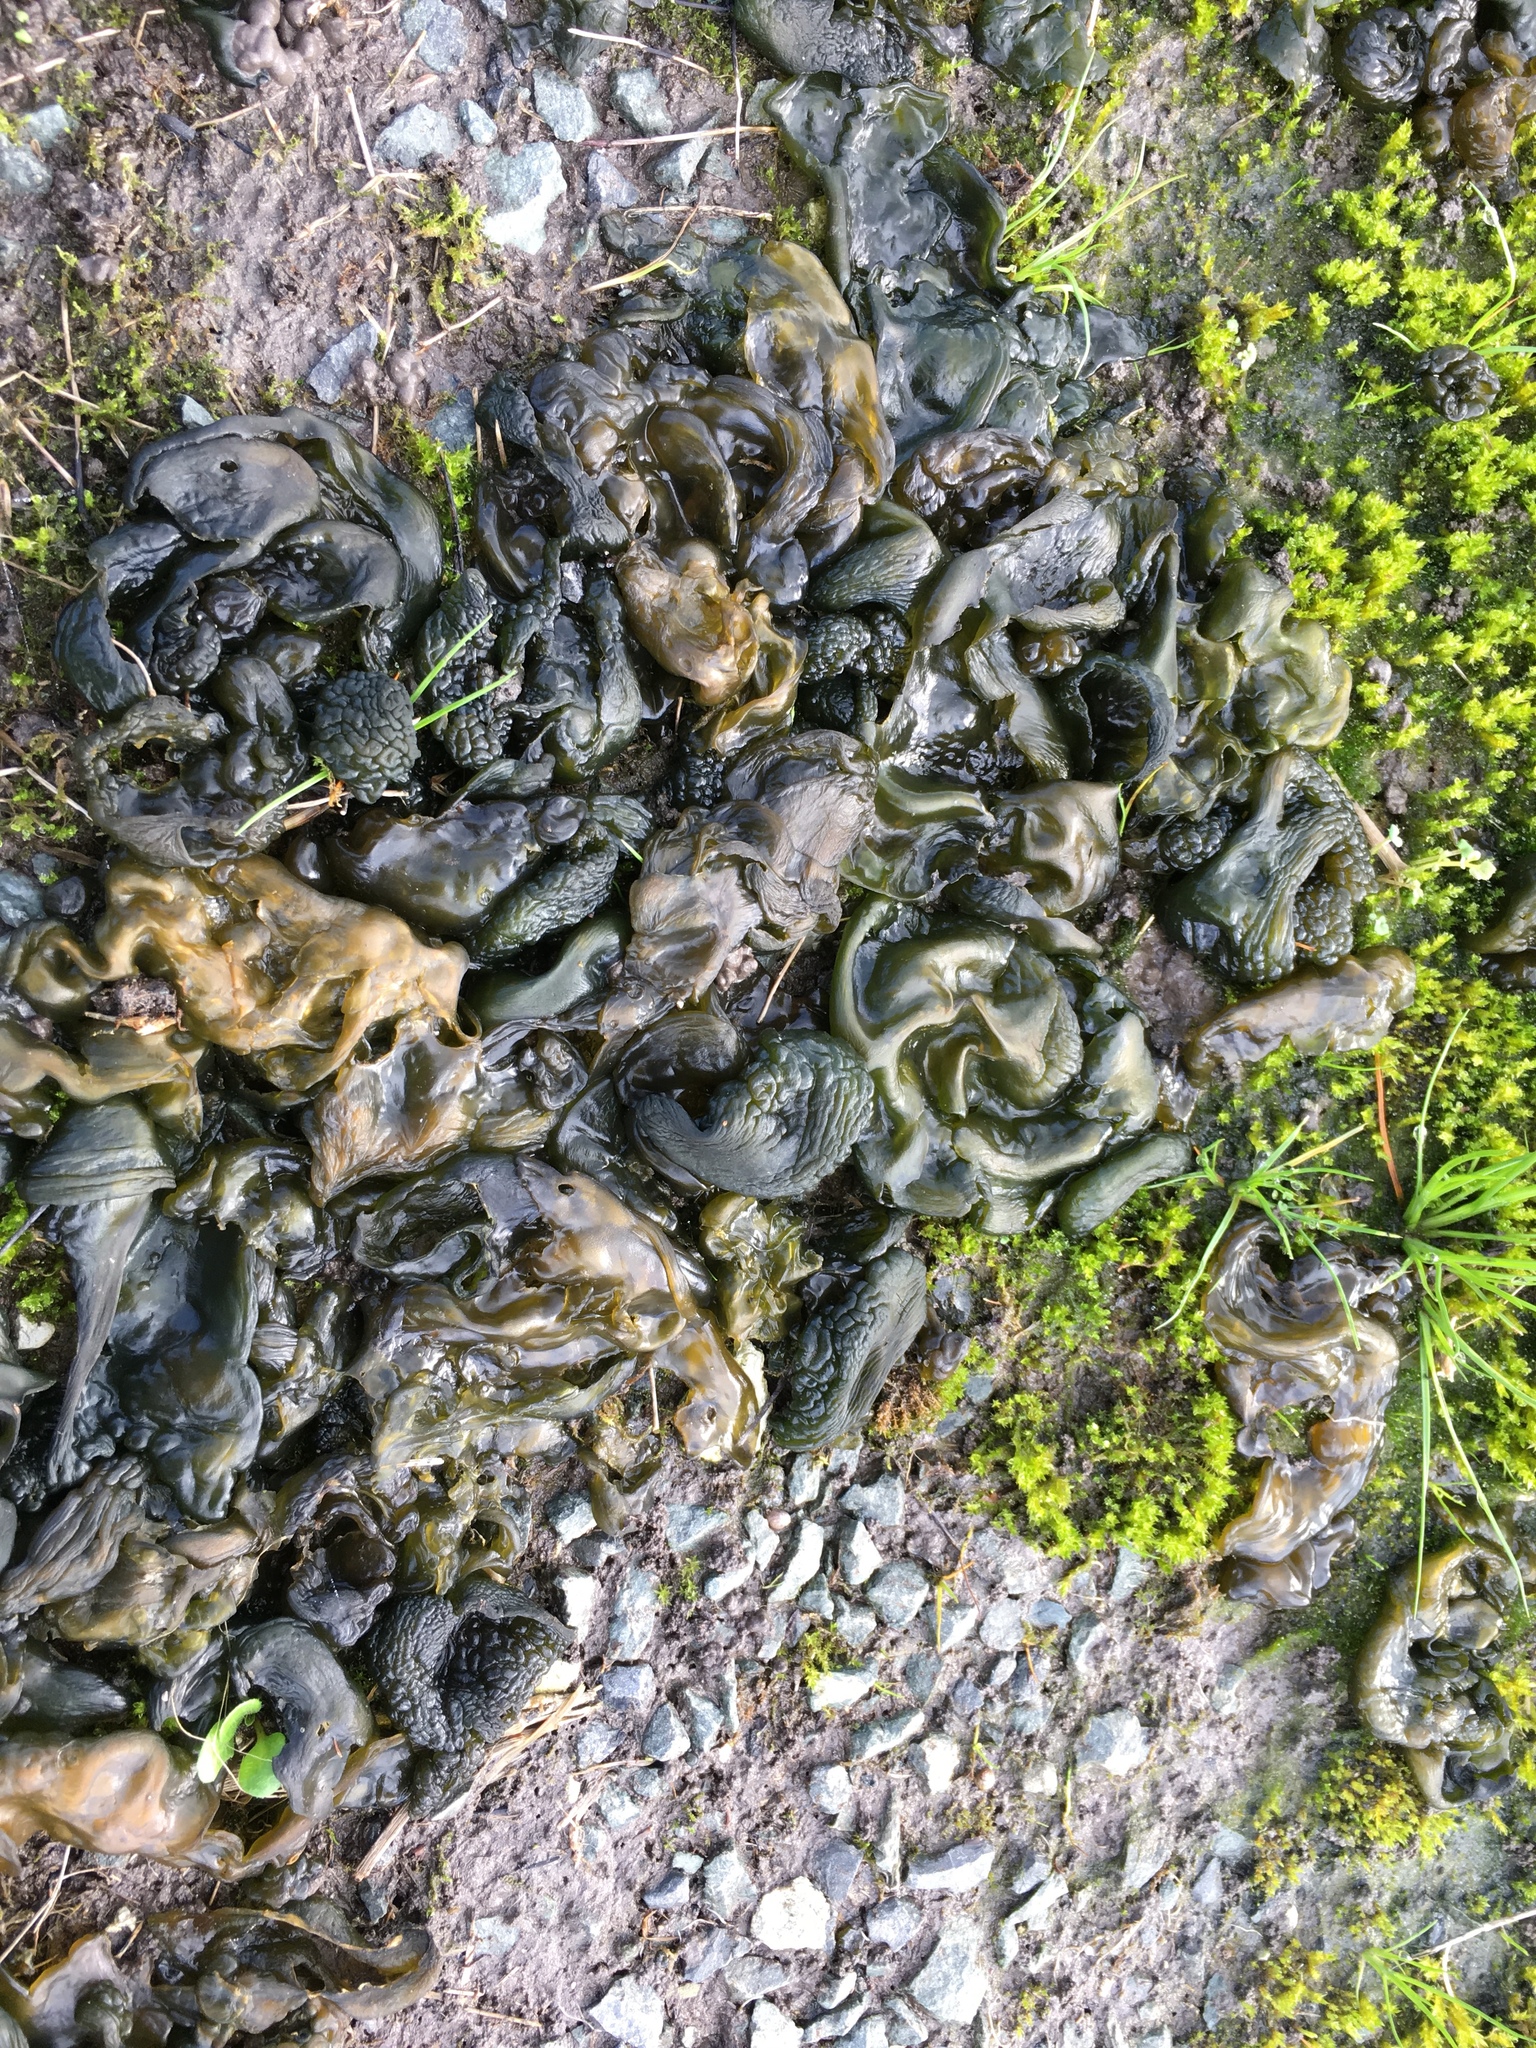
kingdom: Bacteria
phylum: Cyanobacteria
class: Cyanobacteriia
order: Cyanobacteriales
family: Nostocaceae
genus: Nostoc
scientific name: Nostoc commune
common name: Star jelly
